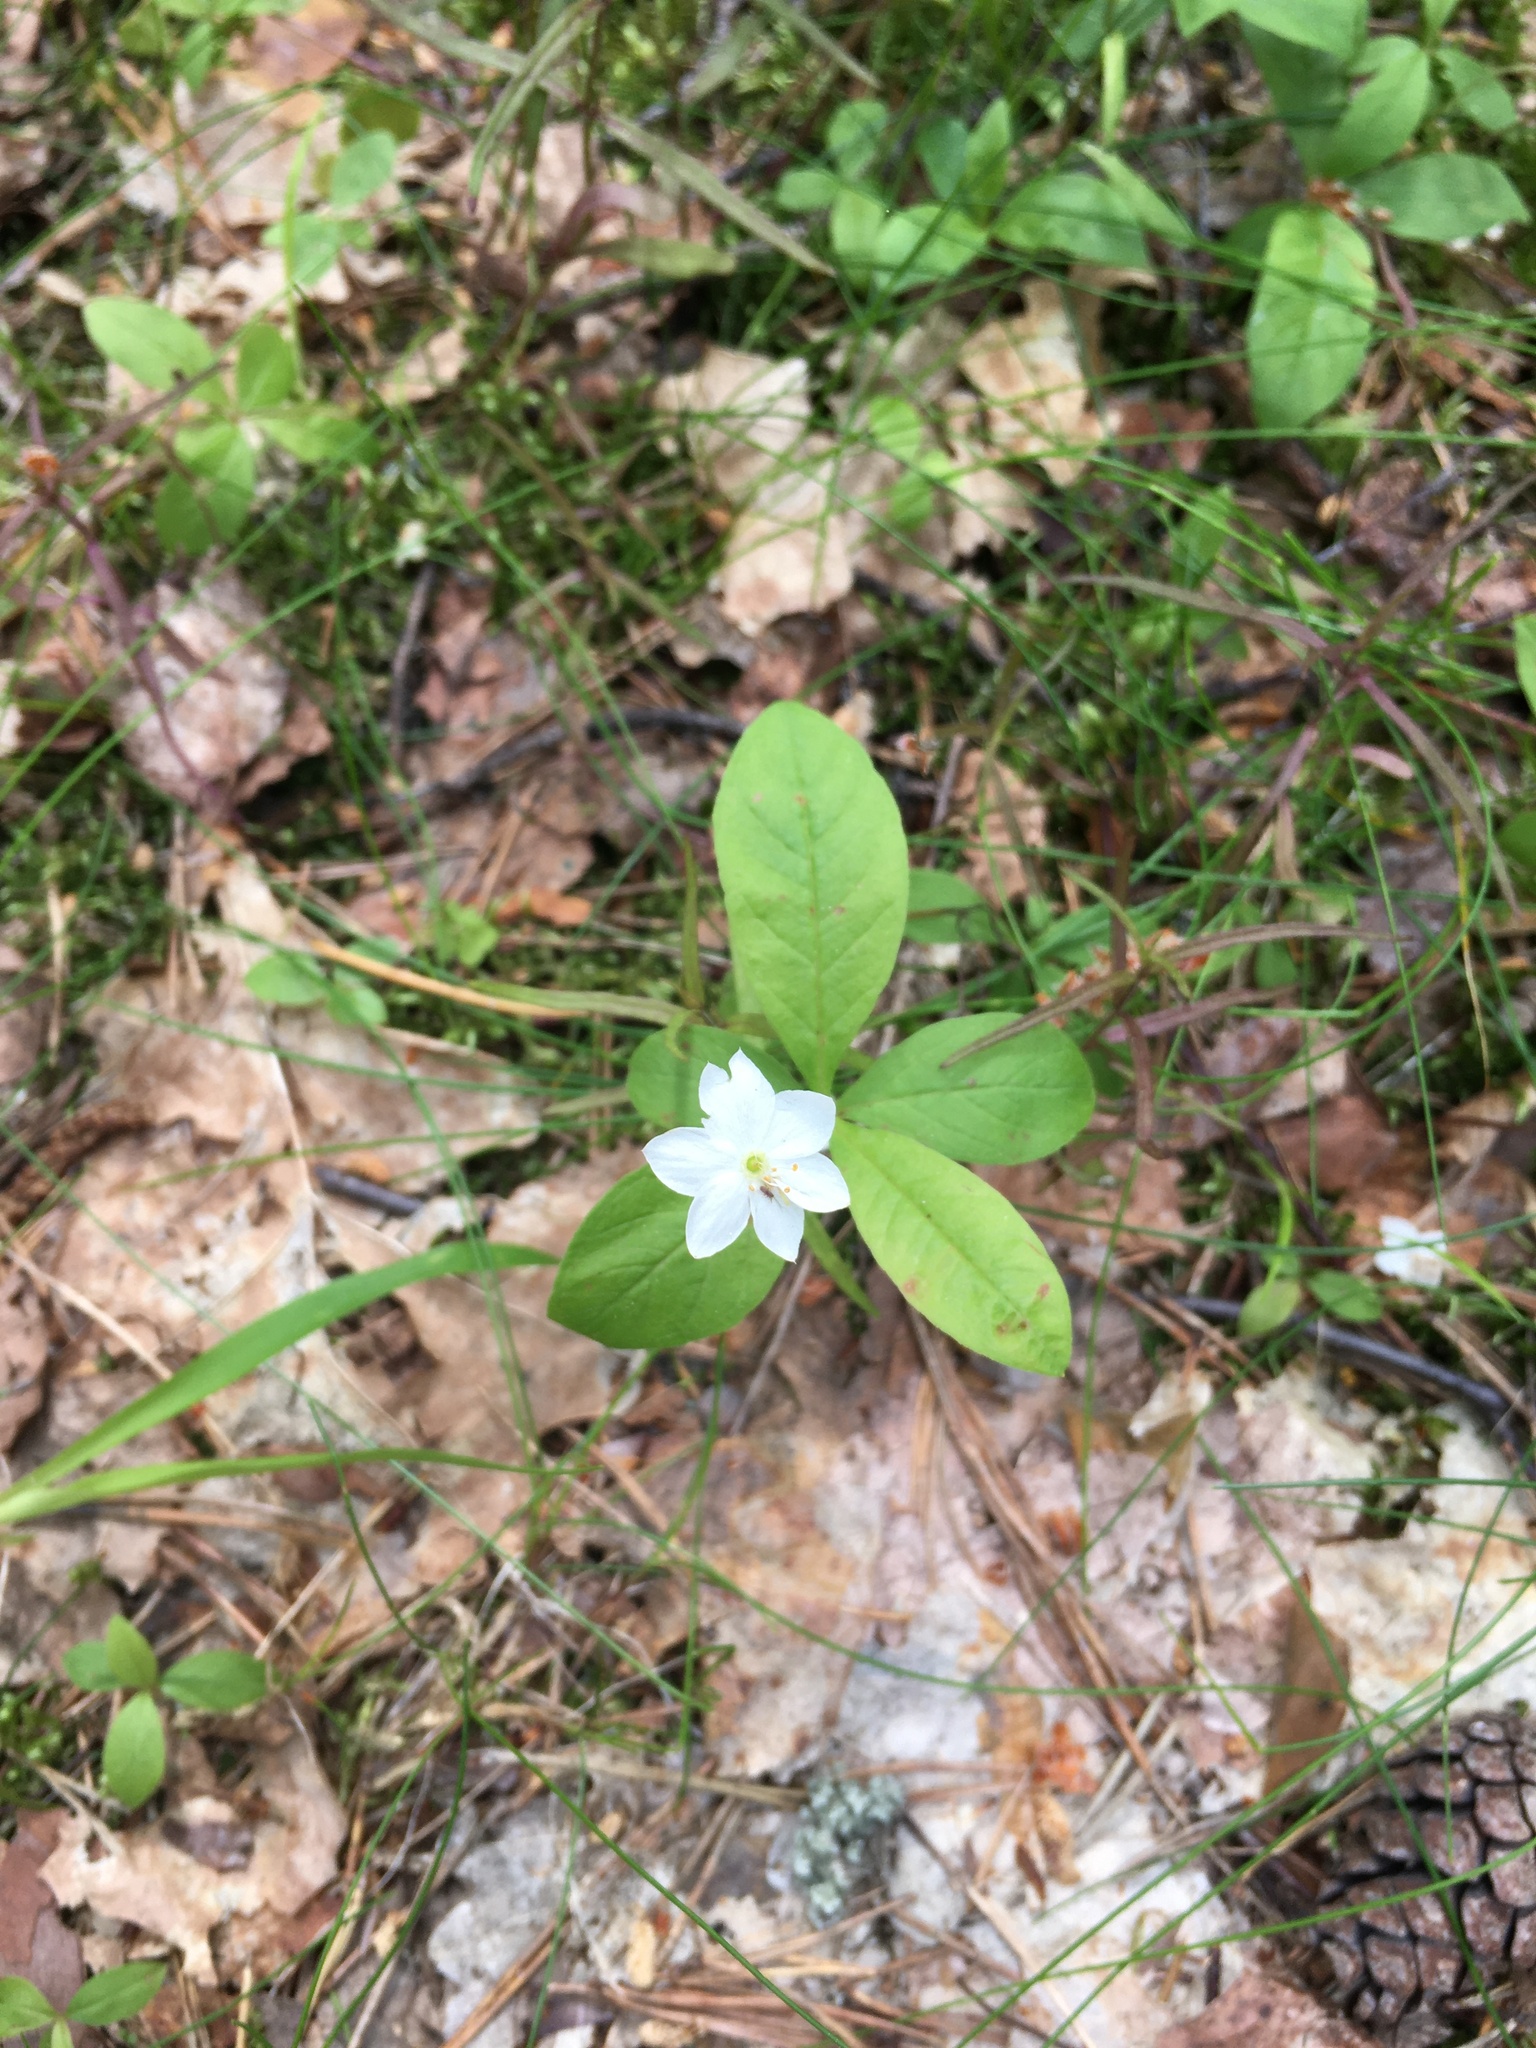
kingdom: Plantae
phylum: Tracheophyta
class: Magnoliopsida
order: Ericales
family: Primulaceae
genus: Lysimachia
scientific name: Lysimachia europaea
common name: Arctic starflower
